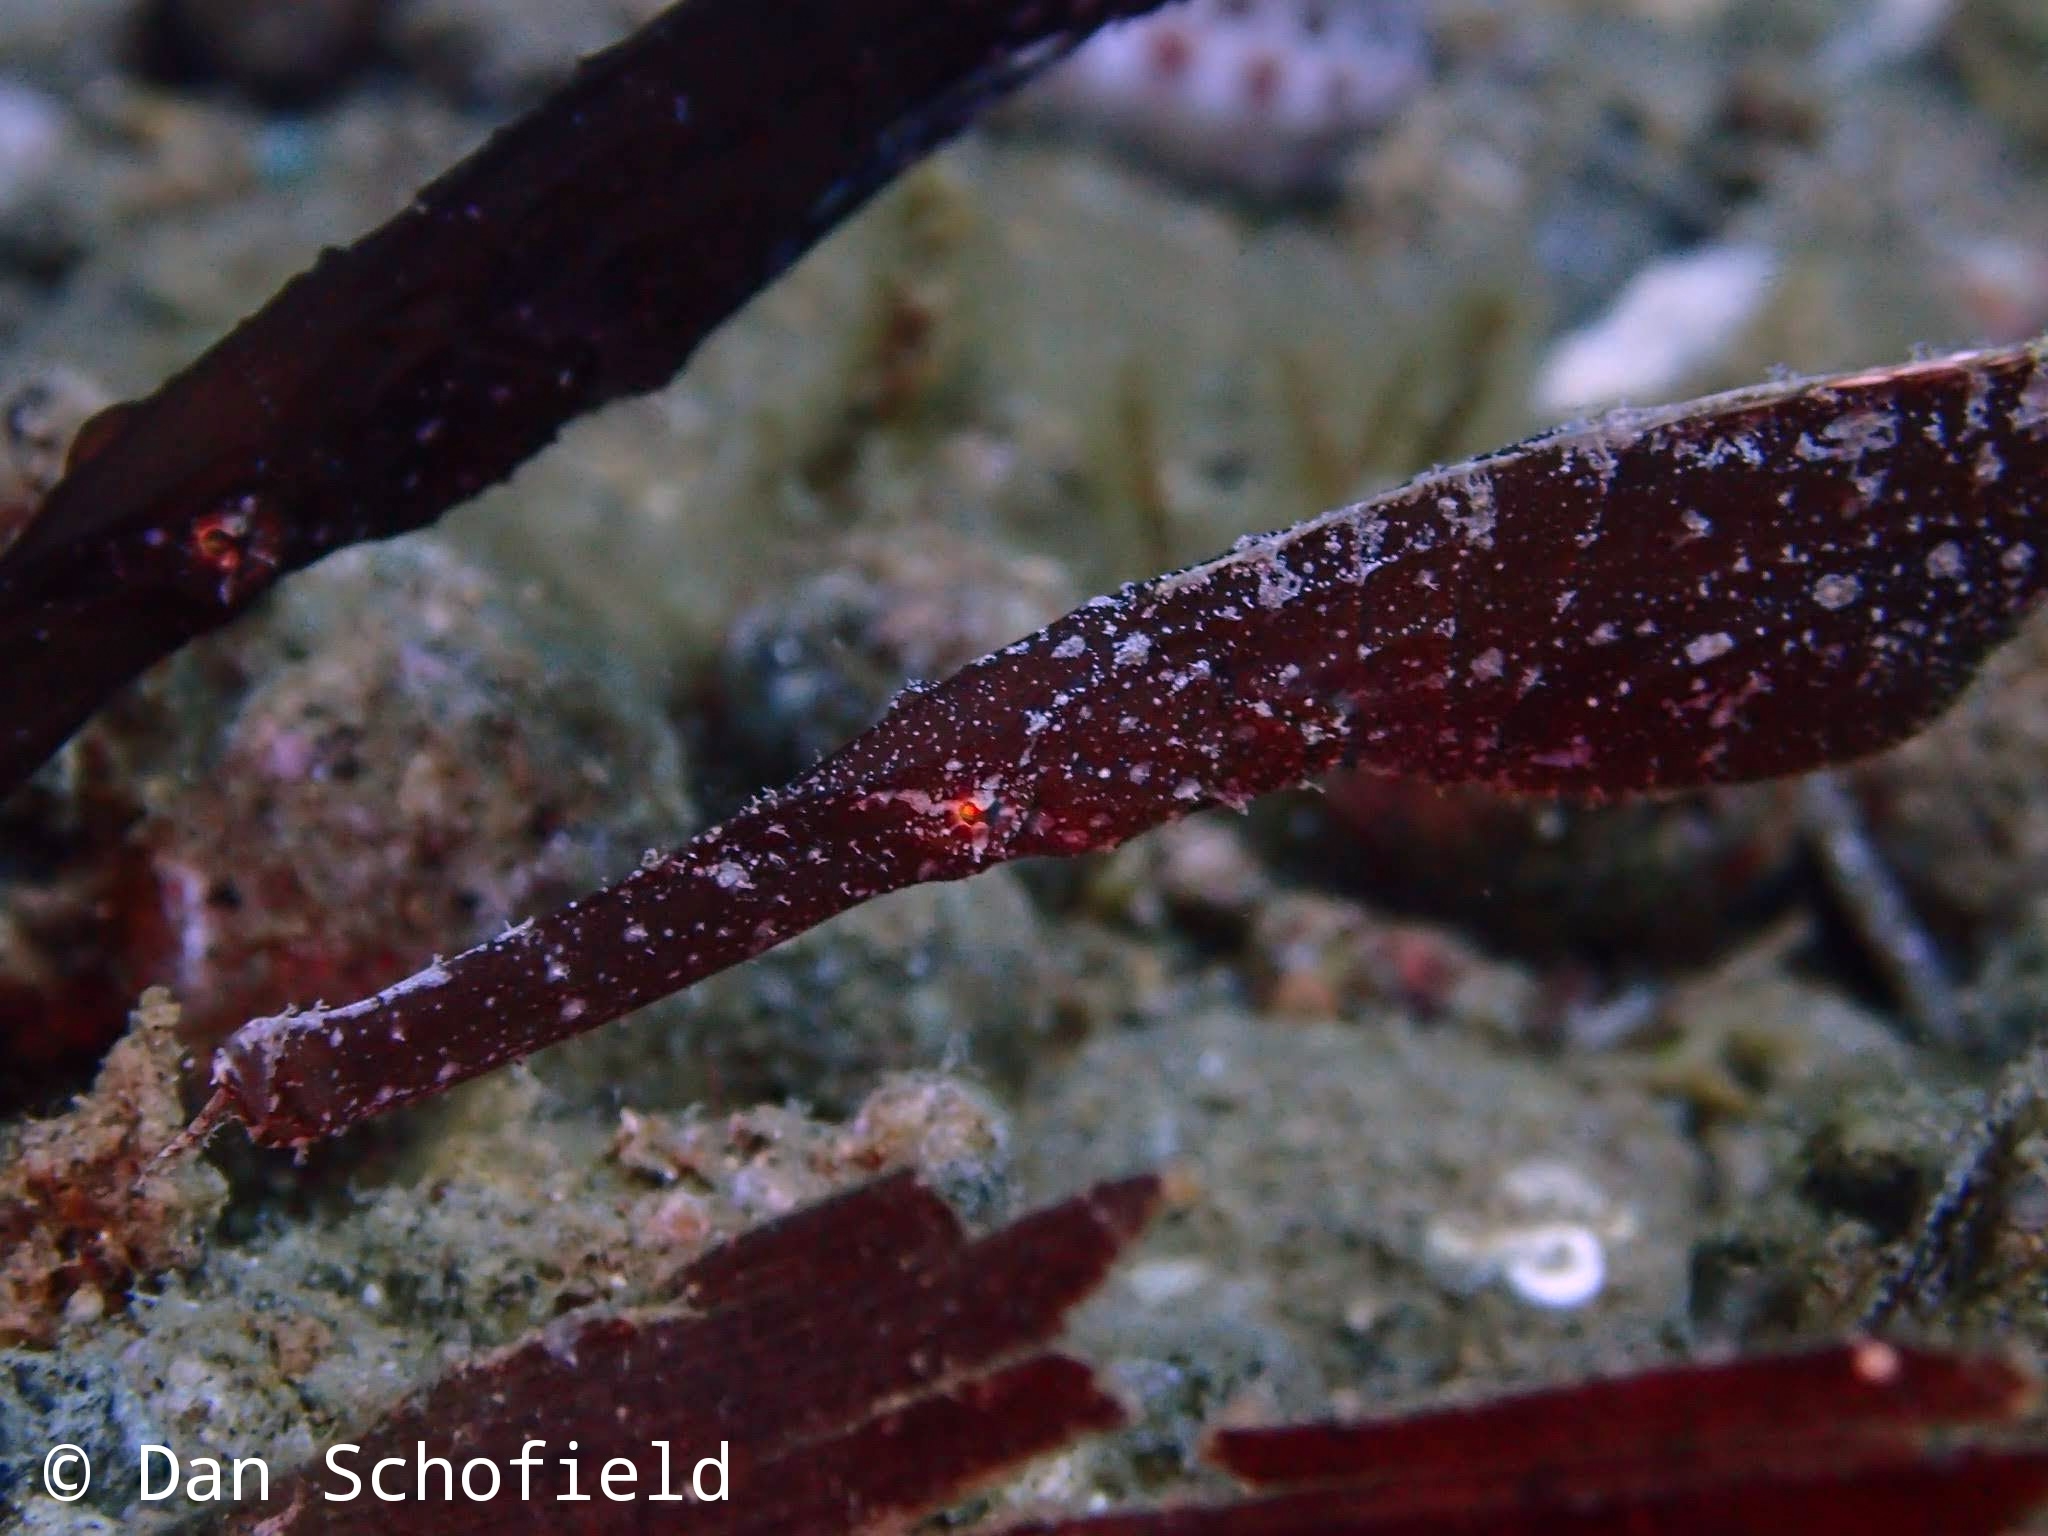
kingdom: Animalia
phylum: Chordata
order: Syngnathiformes
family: Solenostomidae
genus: Solenostomus
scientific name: Solenostomus cyanopterus
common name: Blue-finned ghost pipefish
